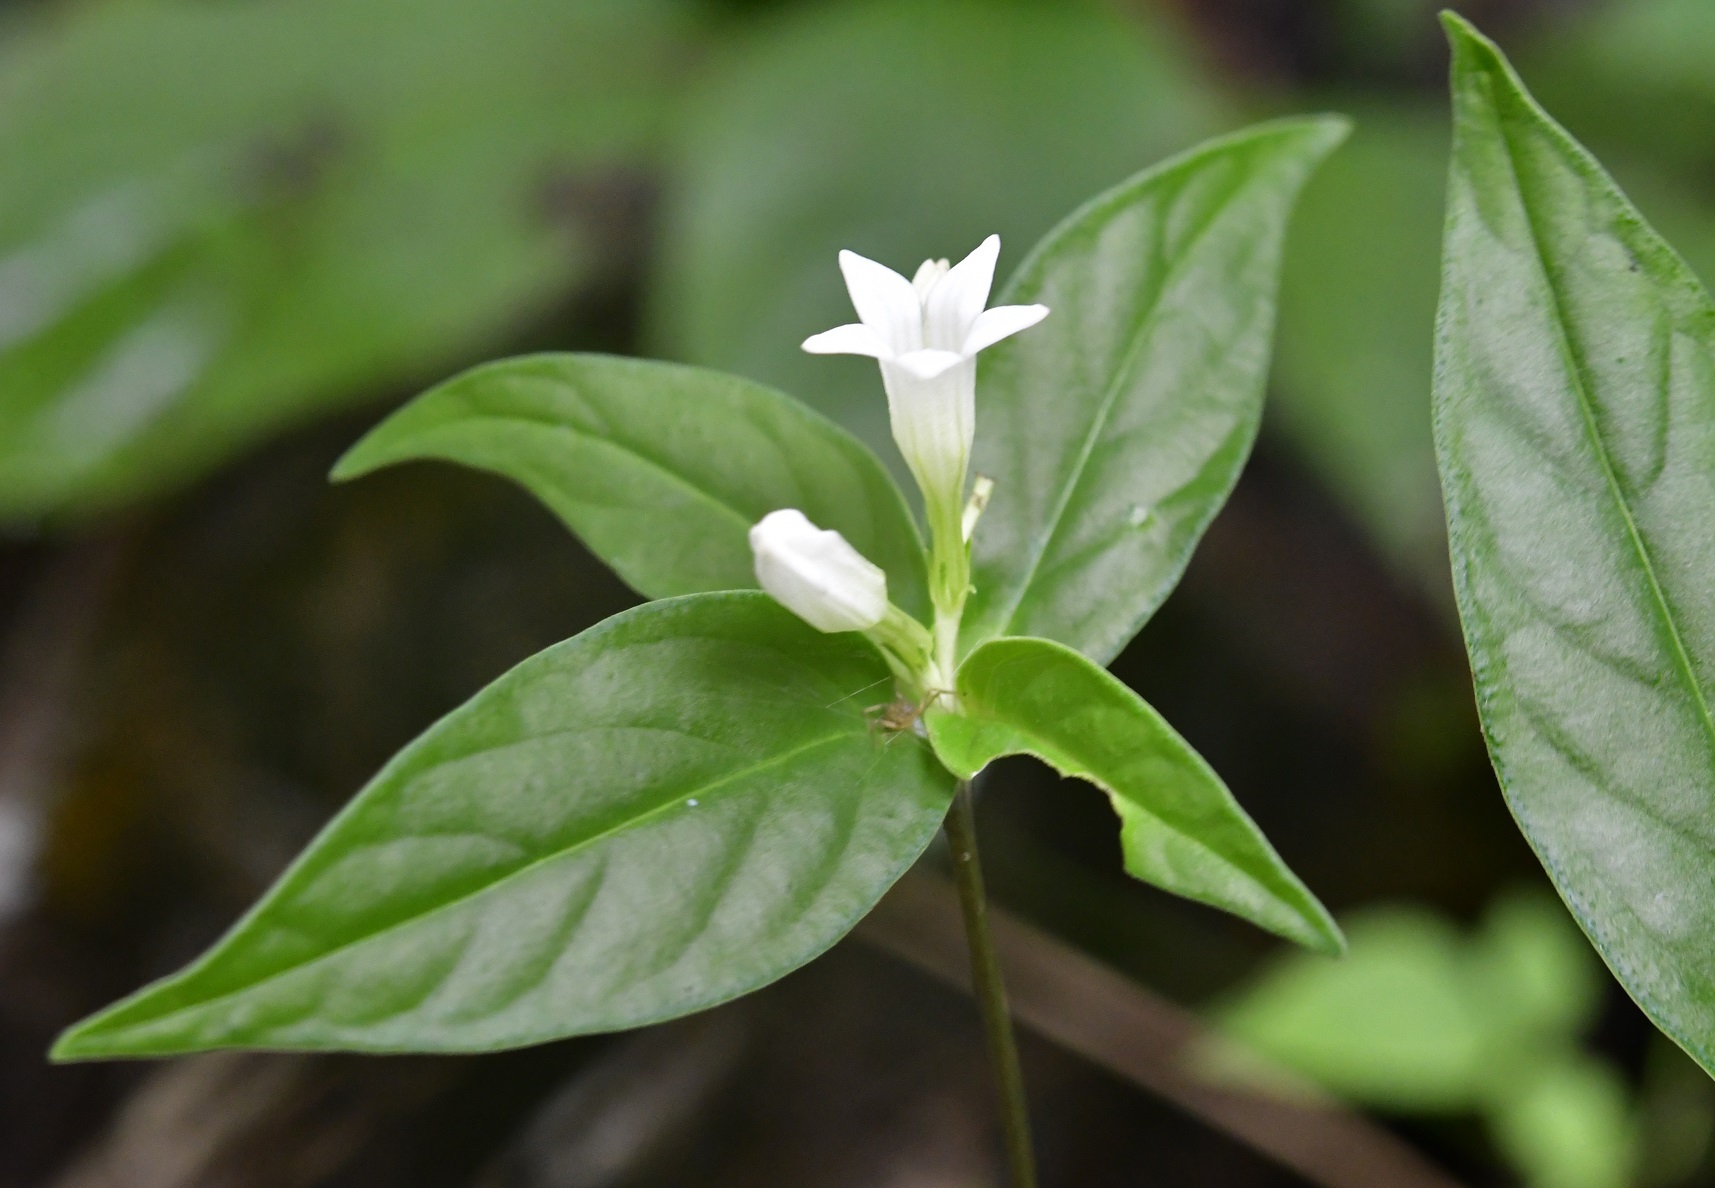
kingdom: Plantae
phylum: Tracheophyta
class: Magnoliopsida
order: Gentianales
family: Loganiaceae
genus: Spigelia
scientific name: Spigelia humboldtiana
